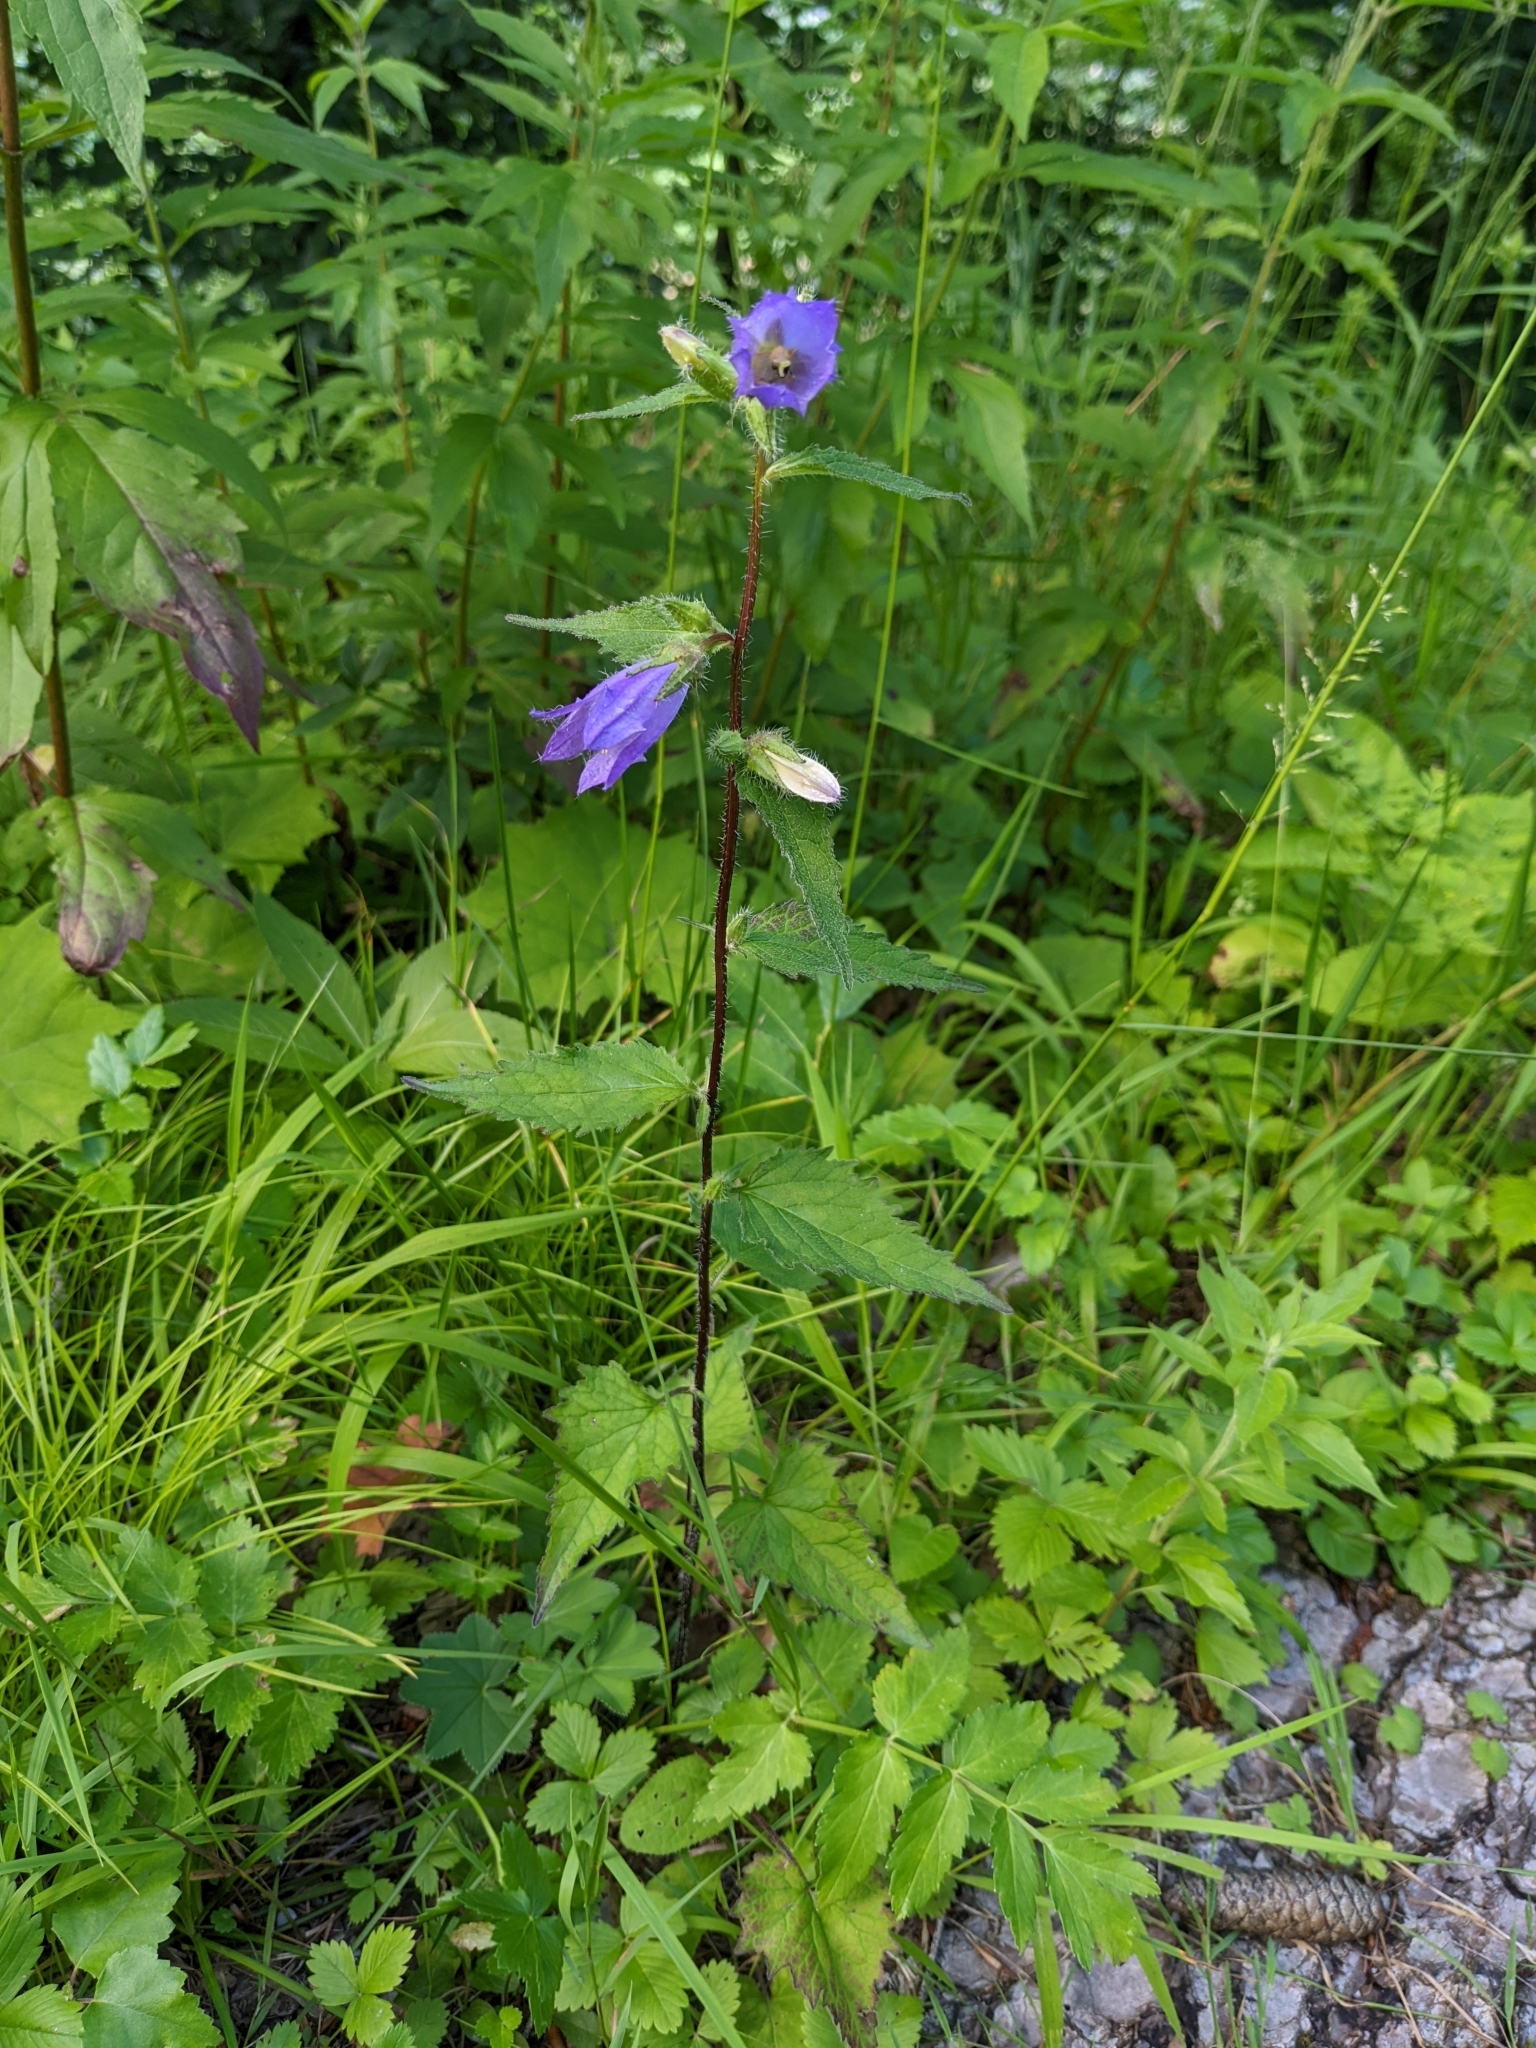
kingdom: Plantae
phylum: Tracheophyta
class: Magnoliopsida
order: Asterales
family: Campanulaceae
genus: Campanula
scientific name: Campanula trachelium
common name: Nettle-leaved bellflower
